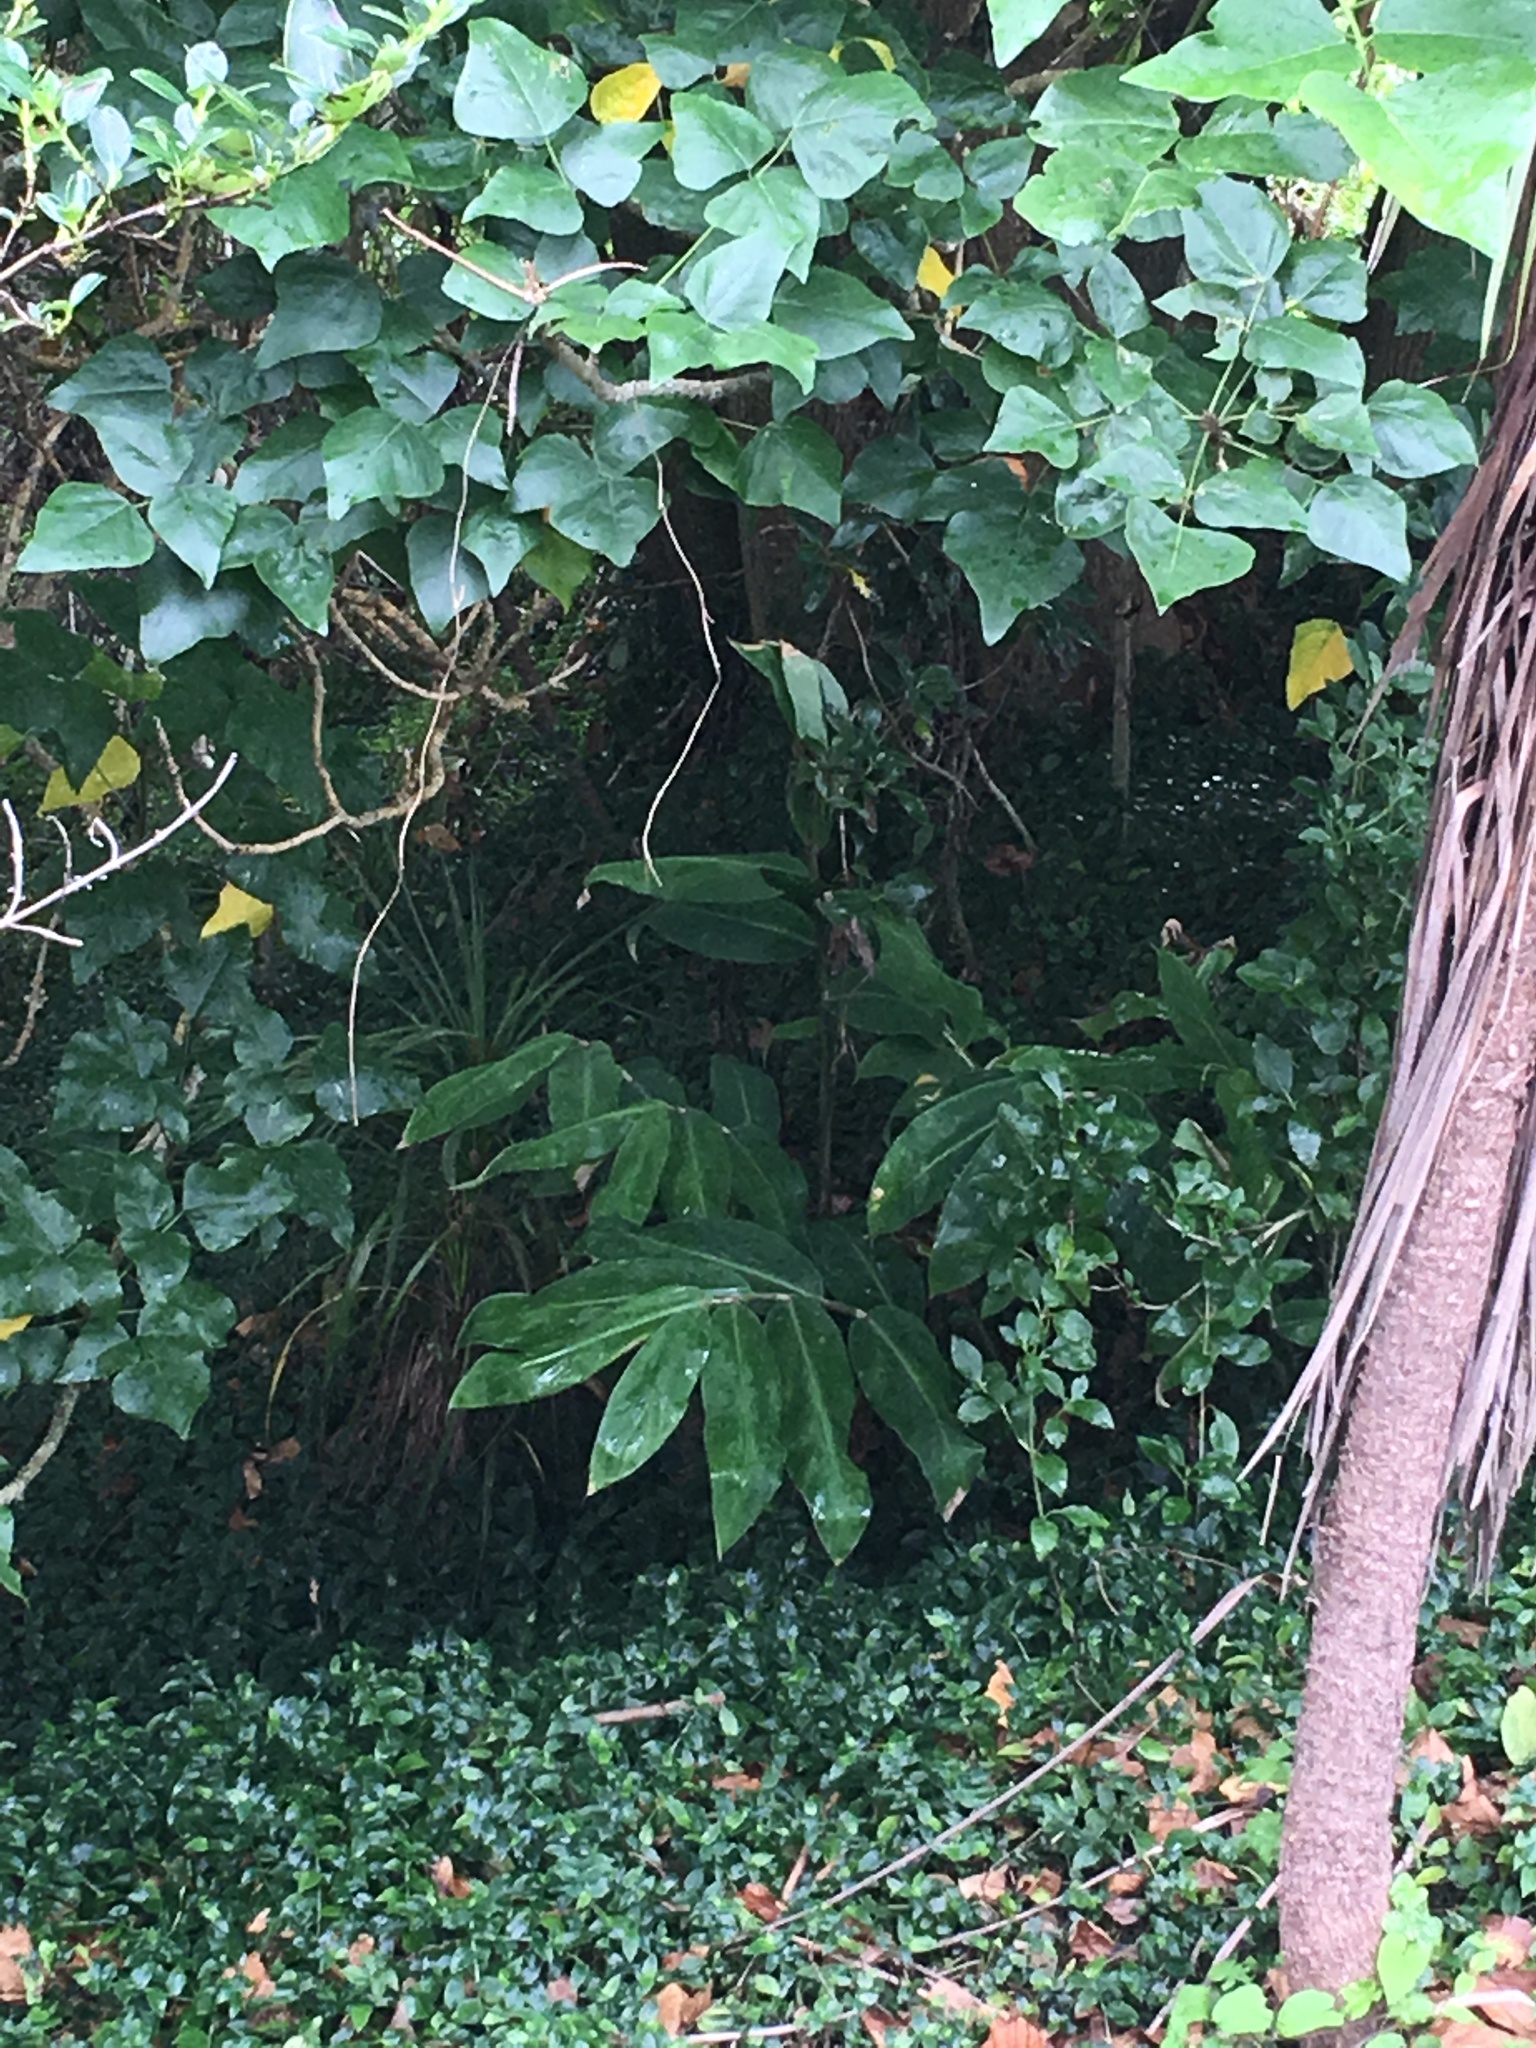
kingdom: Plantae
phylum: Tracheophyta
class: Liliopsida
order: Zingiberales
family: Zingiberaceae
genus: Hedychium
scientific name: Hedychium gardnerianum
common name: Himalayan ginger
